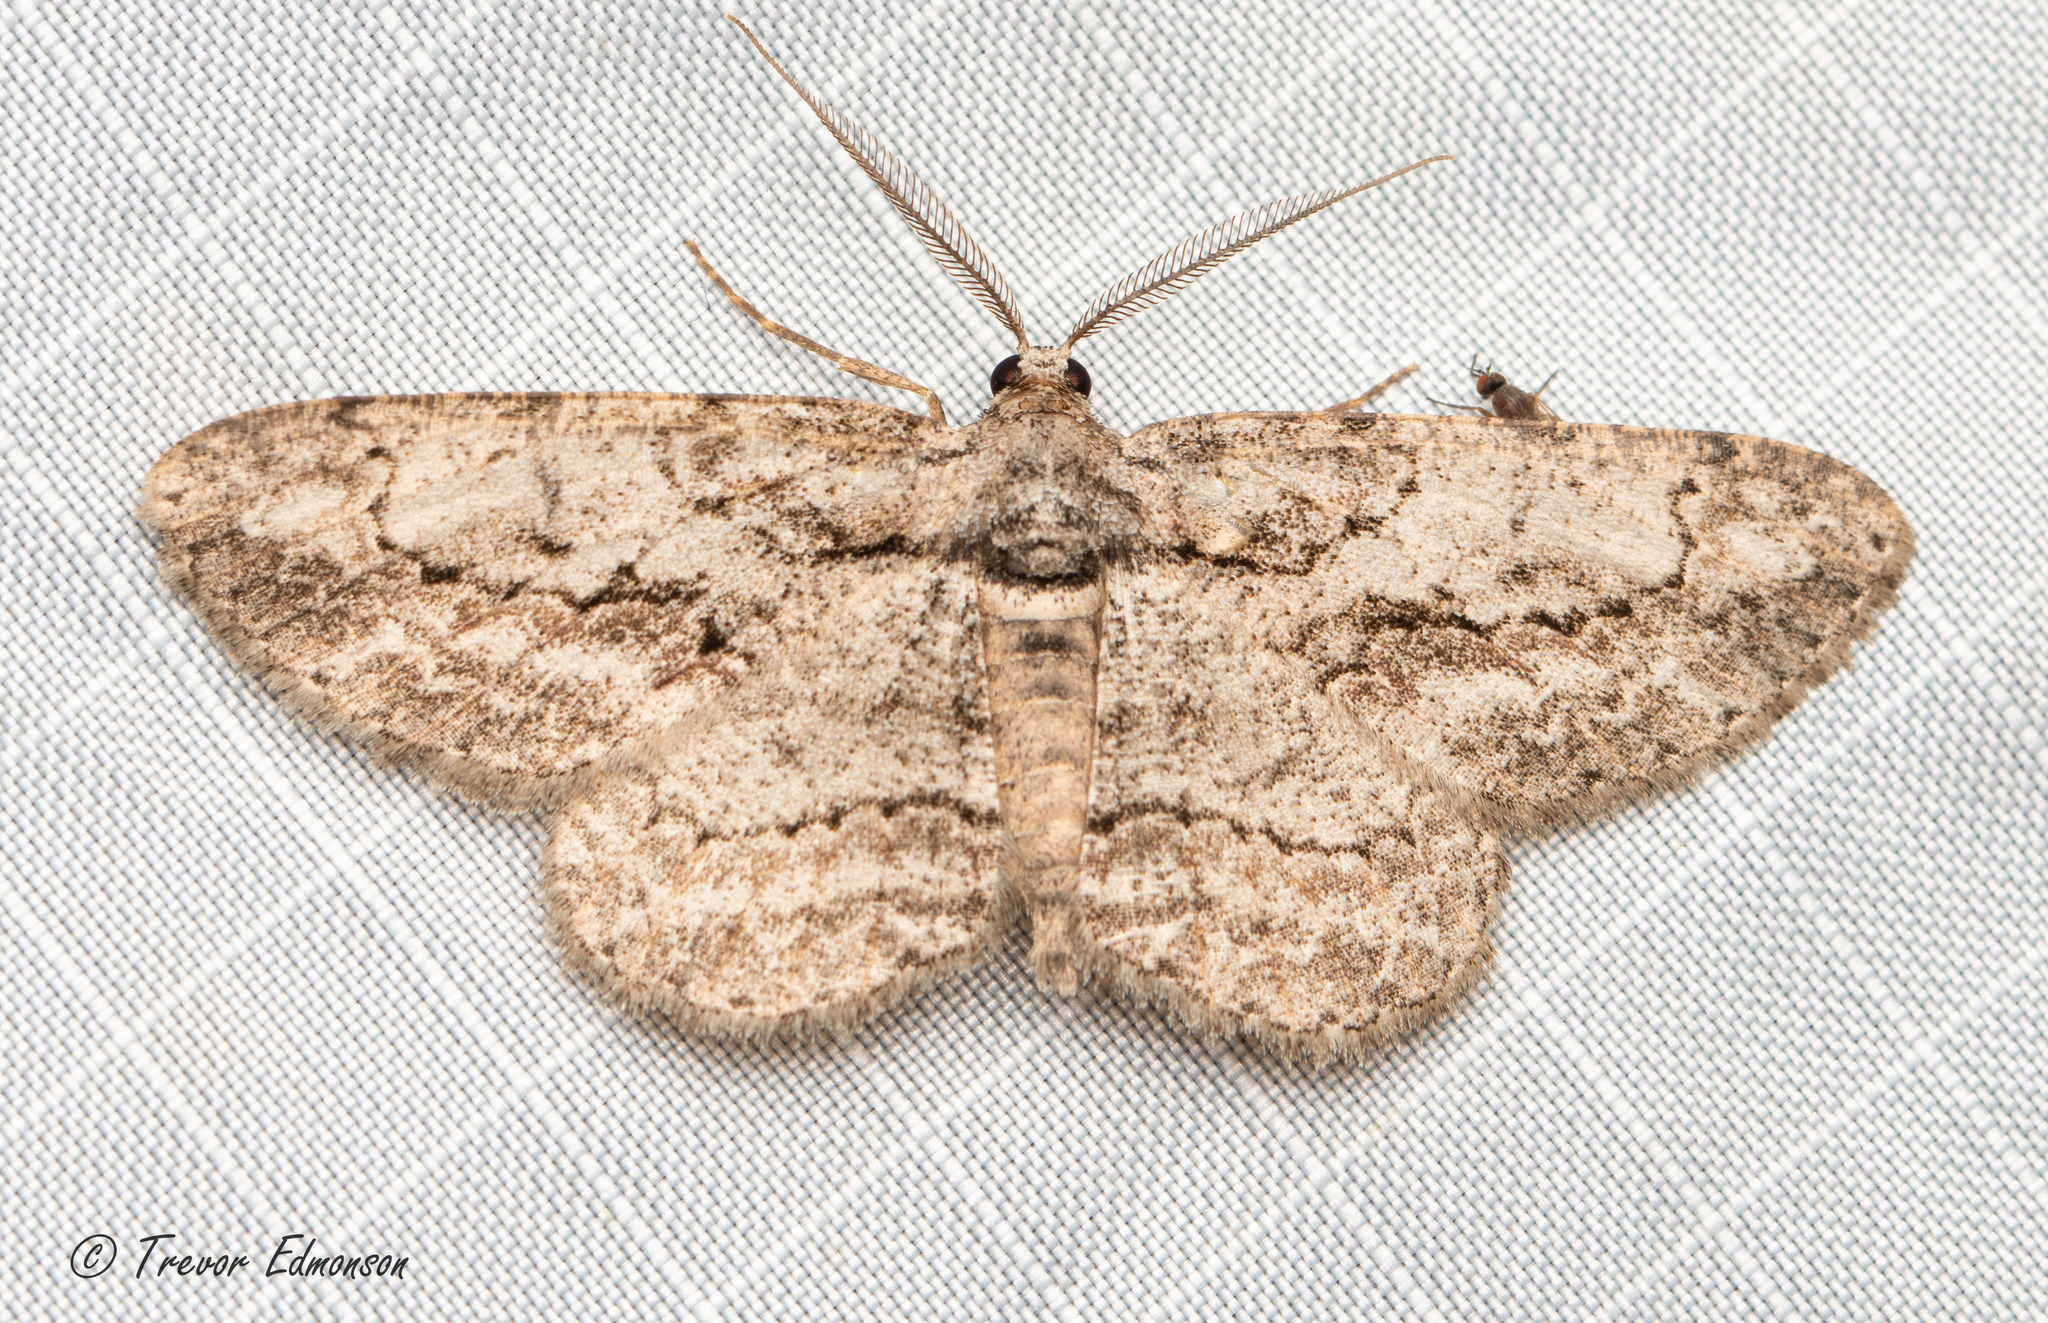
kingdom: Animalia
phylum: Arthropoda
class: Insecta
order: Lepidoptera
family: Geometridae
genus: Anavitrinella
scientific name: Anavitrinella pampinaria
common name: Common gray
